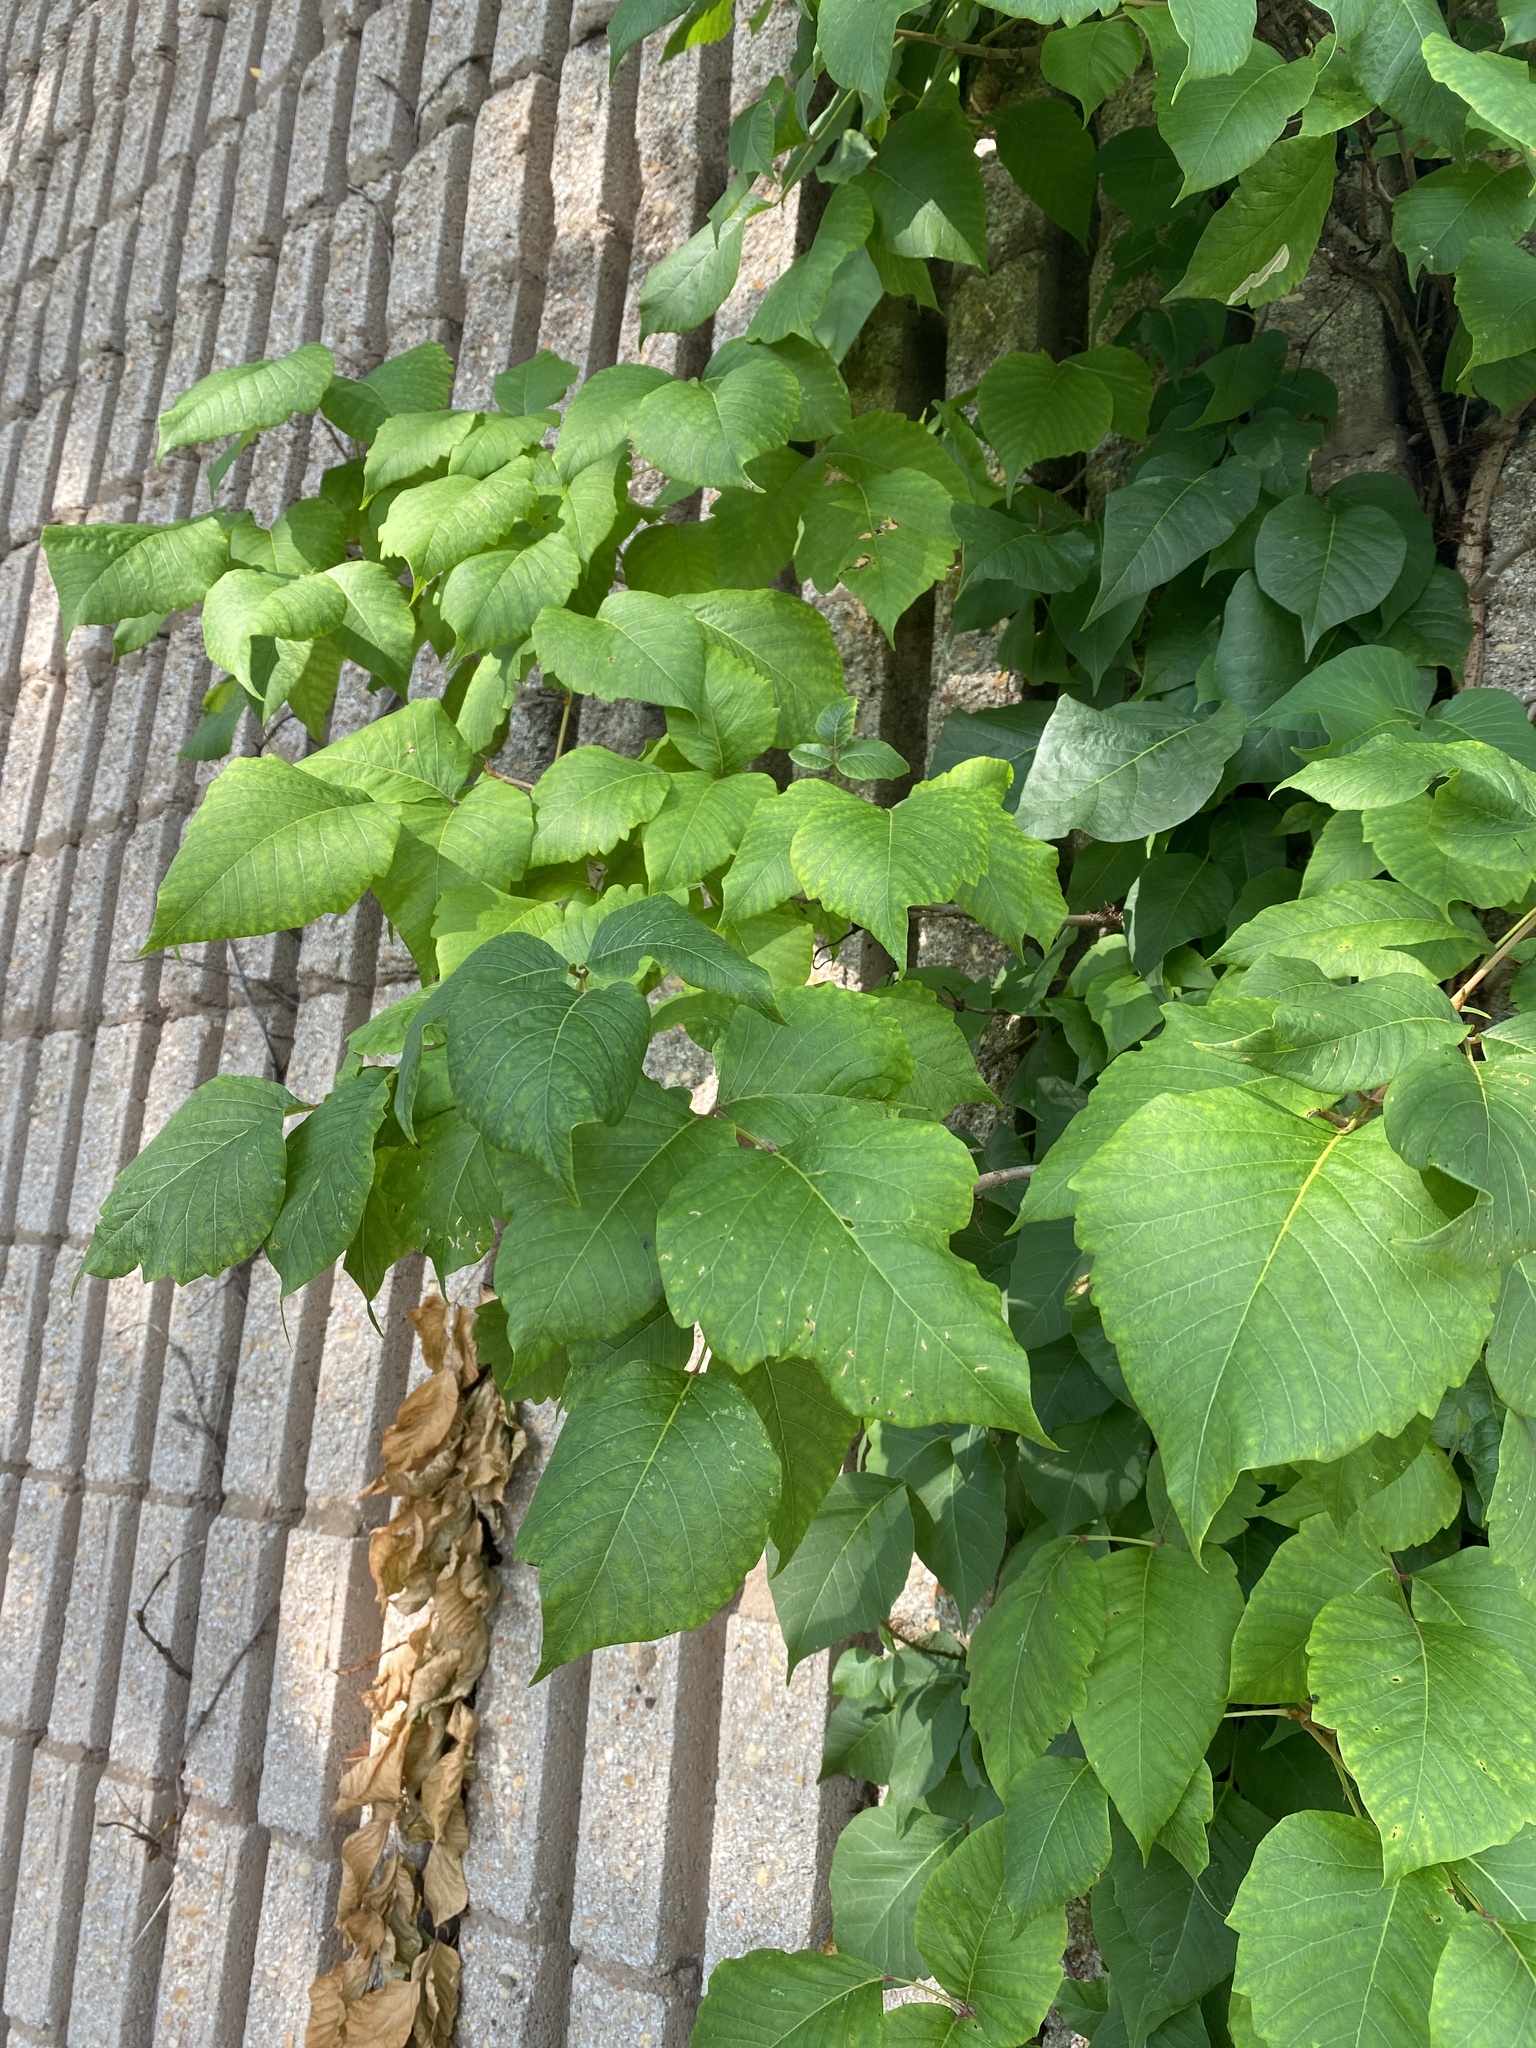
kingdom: Plantae
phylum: Tracheophyta
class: Magnoliopsida
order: Sapindales
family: Anacardiaceae
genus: Toxicodendron
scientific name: Toxicodendron radicans
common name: Poison ivy
